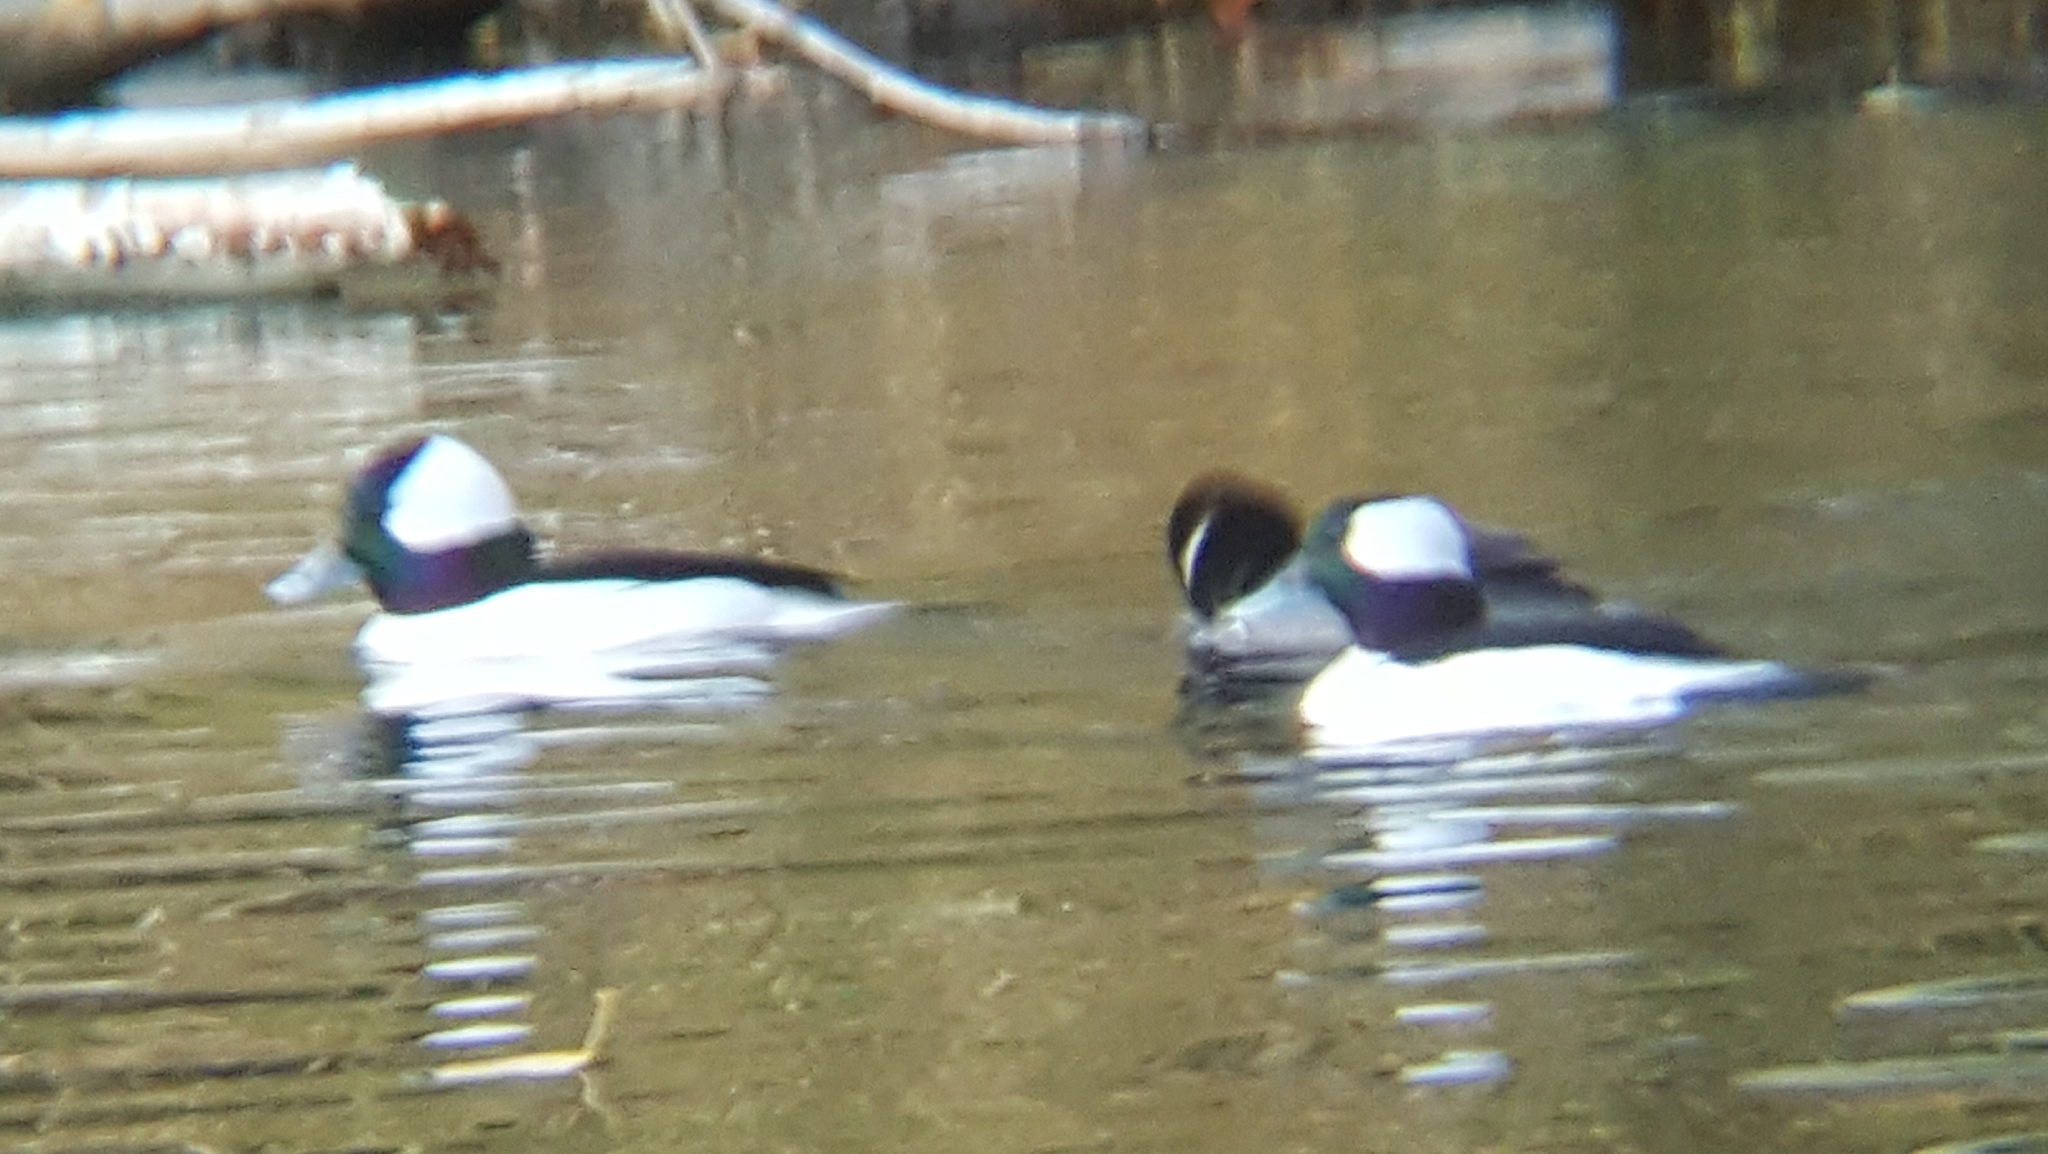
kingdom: Animalia
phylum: Chordata
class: Aves
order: Anseriformes
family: Anatidae
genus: Bucephala
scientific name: Bucephala albeola
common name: Bufflehead
